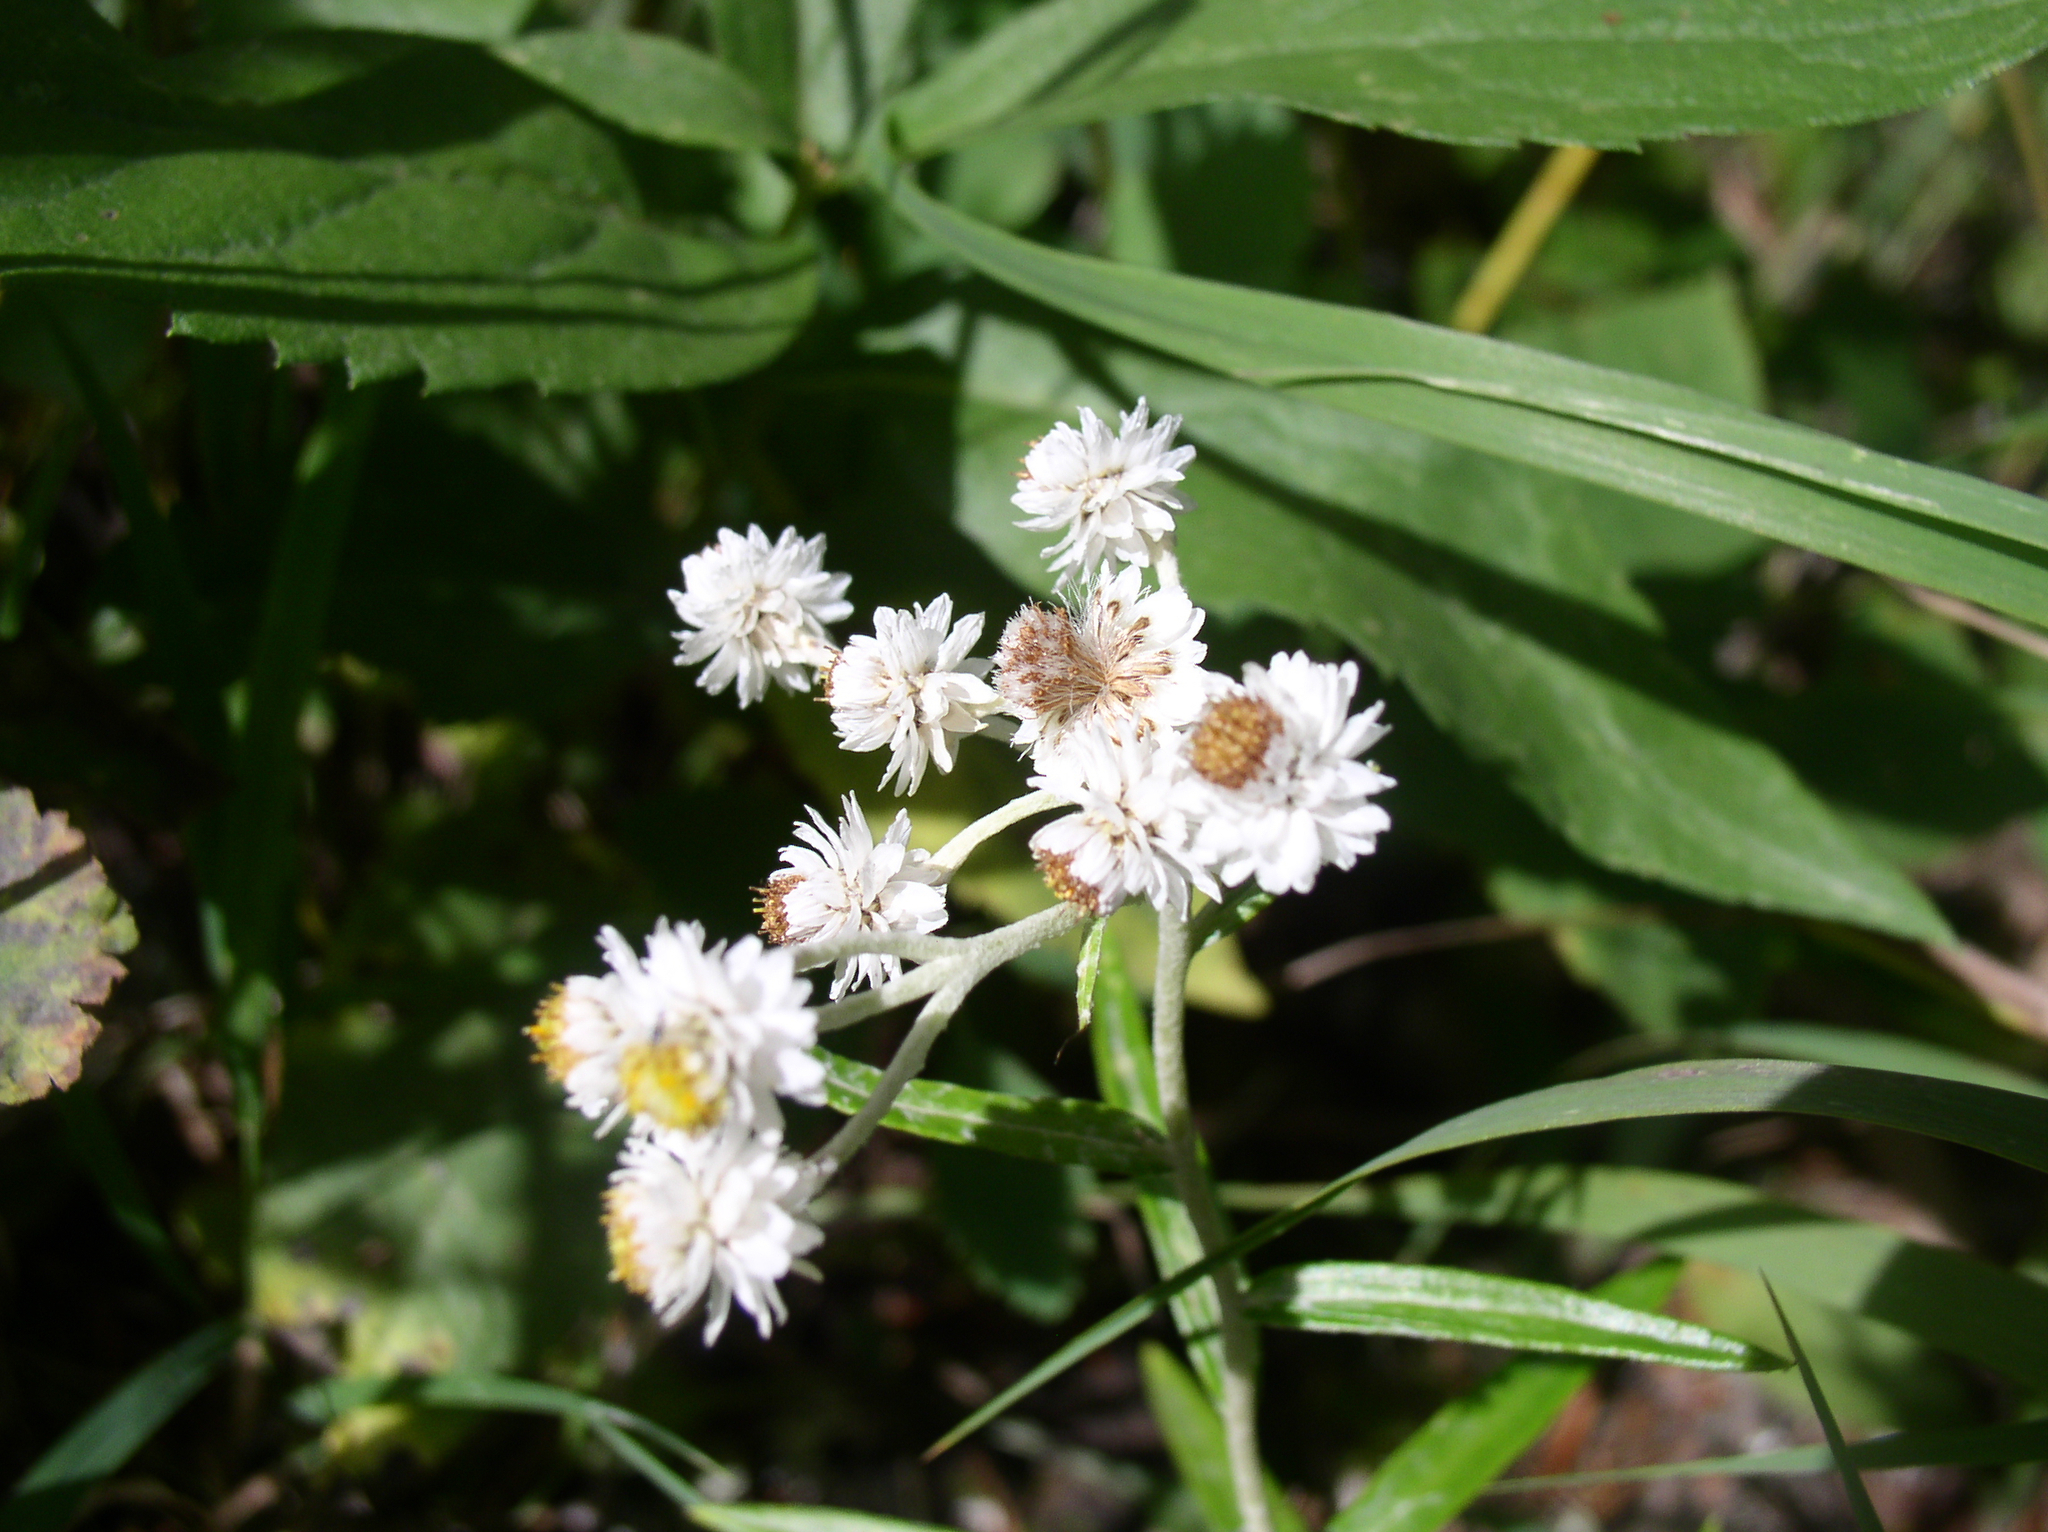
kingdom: Plantae
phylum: Tracheophyta
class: Magnoliopsida
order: Asterales
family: Asteraceae
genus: Anaphalis
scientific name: Anaphalis margaritacea
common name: Pearly everlasting
